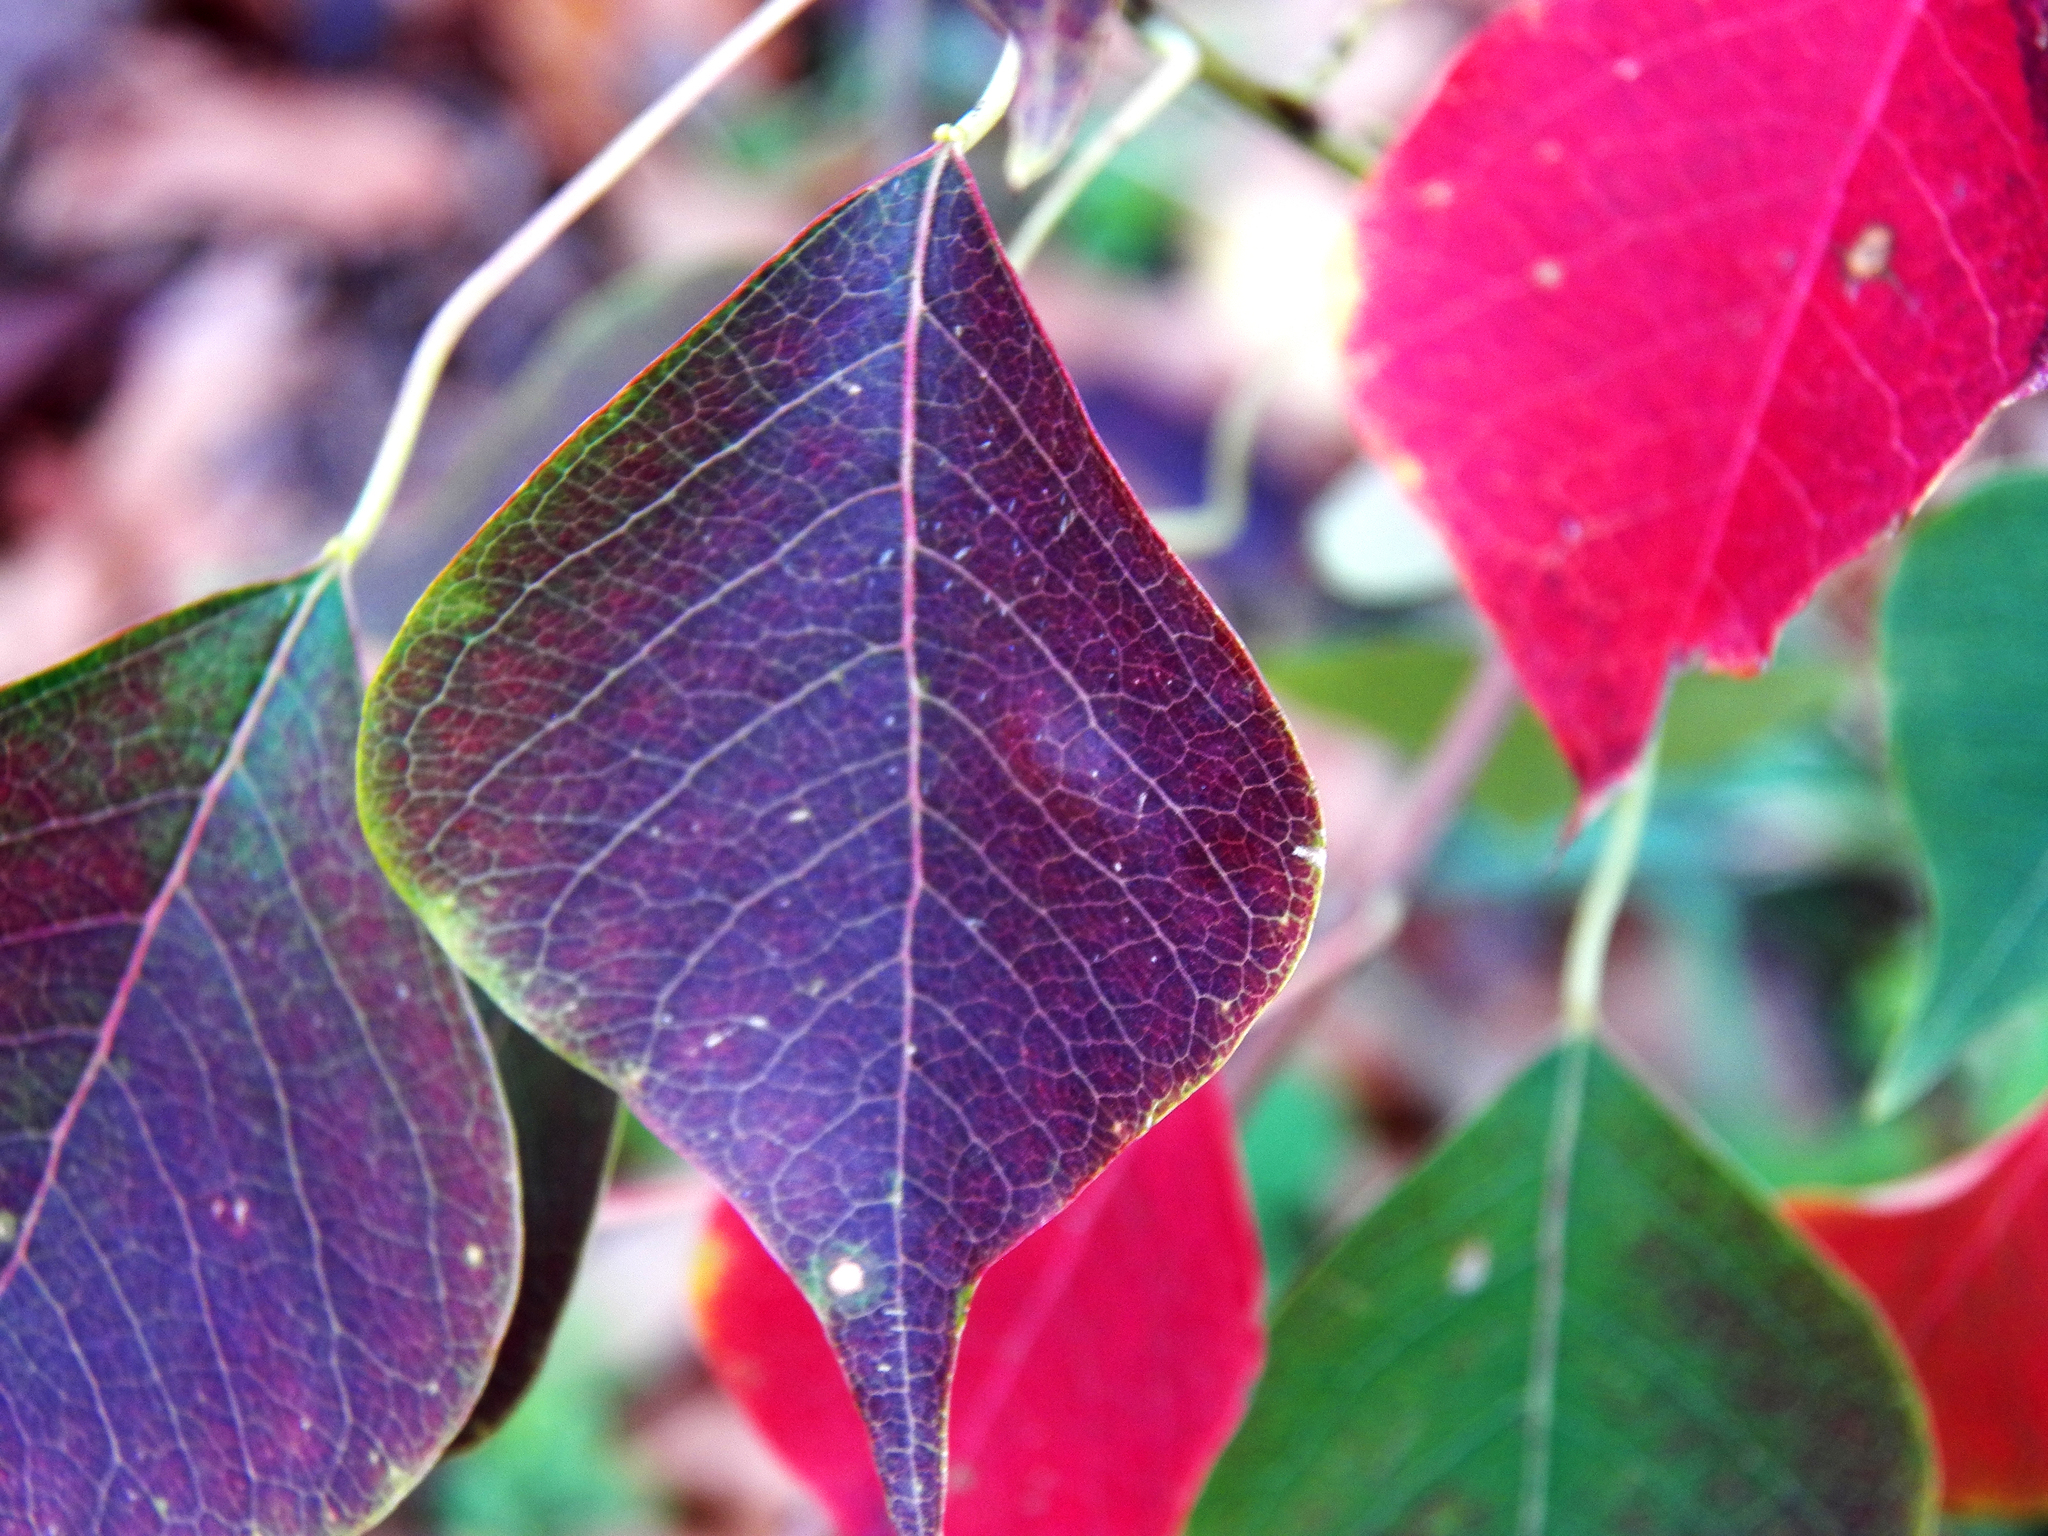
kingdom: Plantae
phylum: Tracheophyta
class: Magnoliopsida
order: Malpighiales
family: Euphorbiaceae
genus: Triadica
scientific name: Triadica sebifera
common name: Chinese tallow
